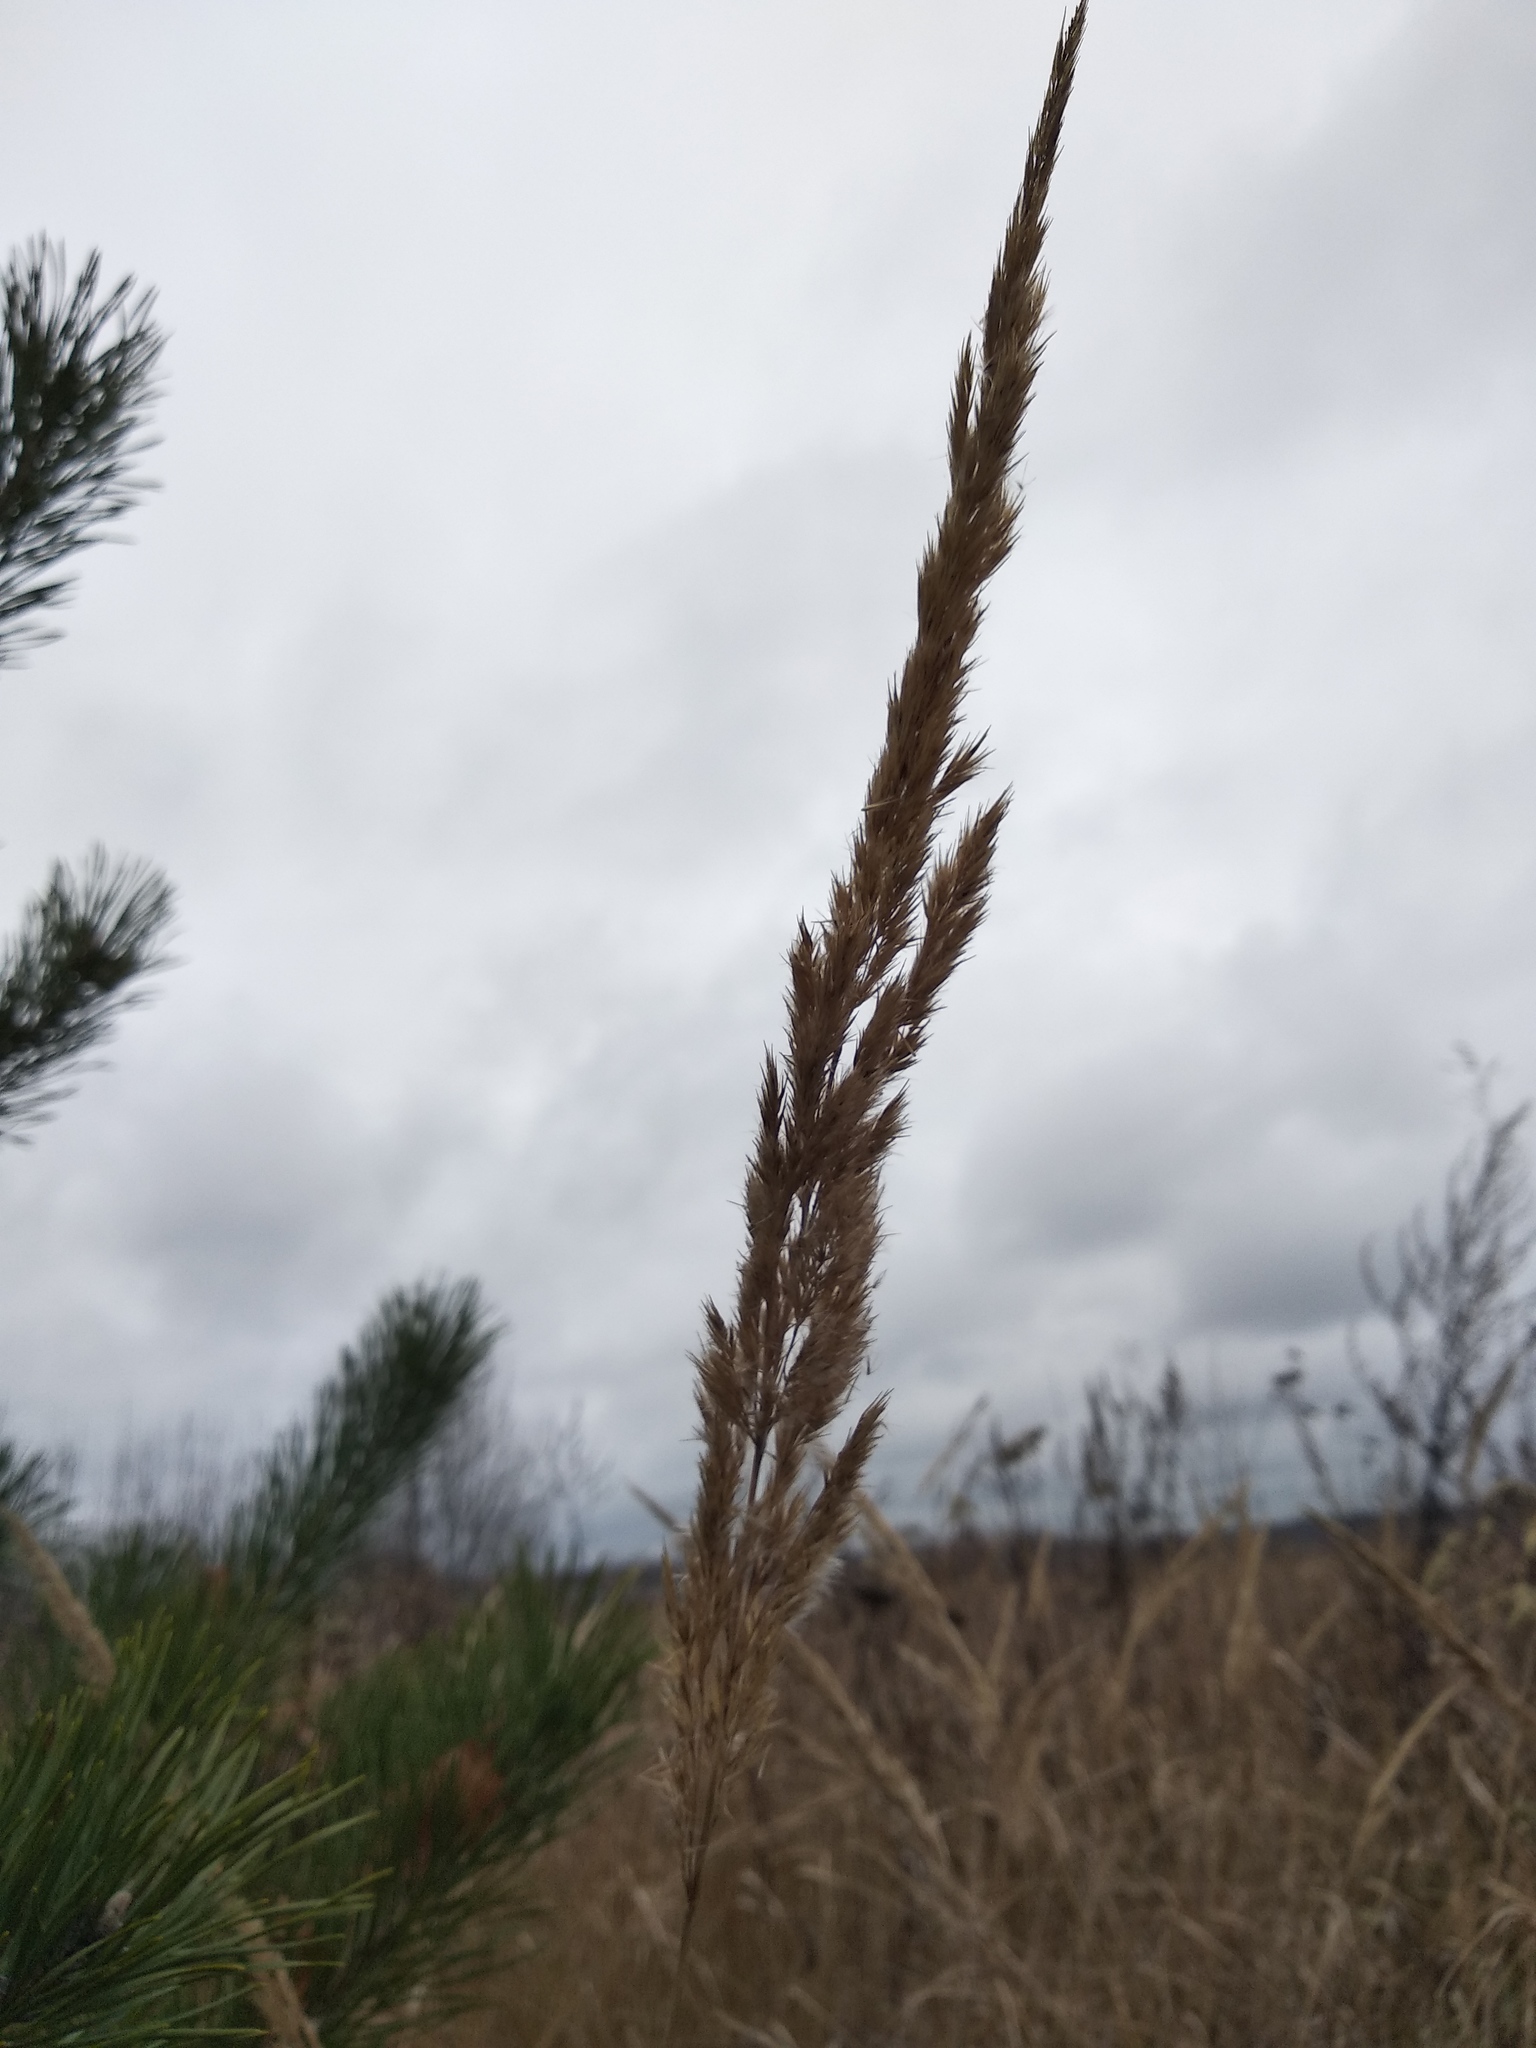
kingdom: Plantae
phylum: Tracheophyta
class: Liliopsida
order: Poales
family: Poaceae
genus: Calamagrostis
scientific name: Calamagrostis epigejos
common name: Wood small-reed
